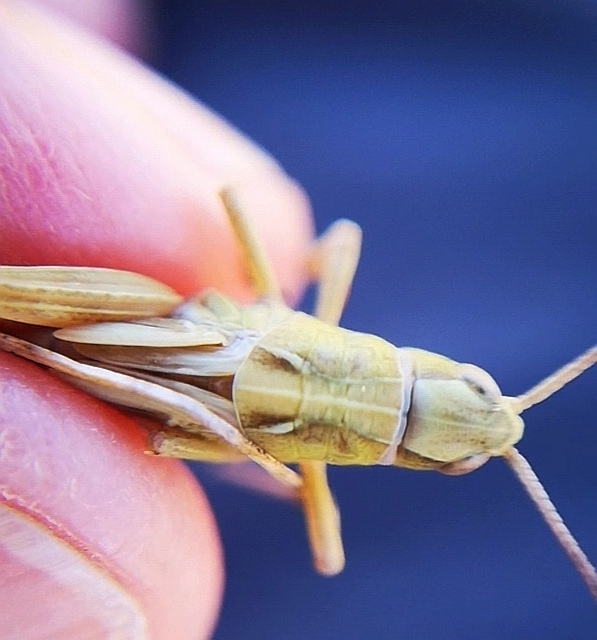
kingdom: Animalia
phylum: Arthropoda
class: Insecta
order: Orthoptera
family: Acrididae
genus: Gomphocerus
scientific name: Gomphocerus sibiricus
